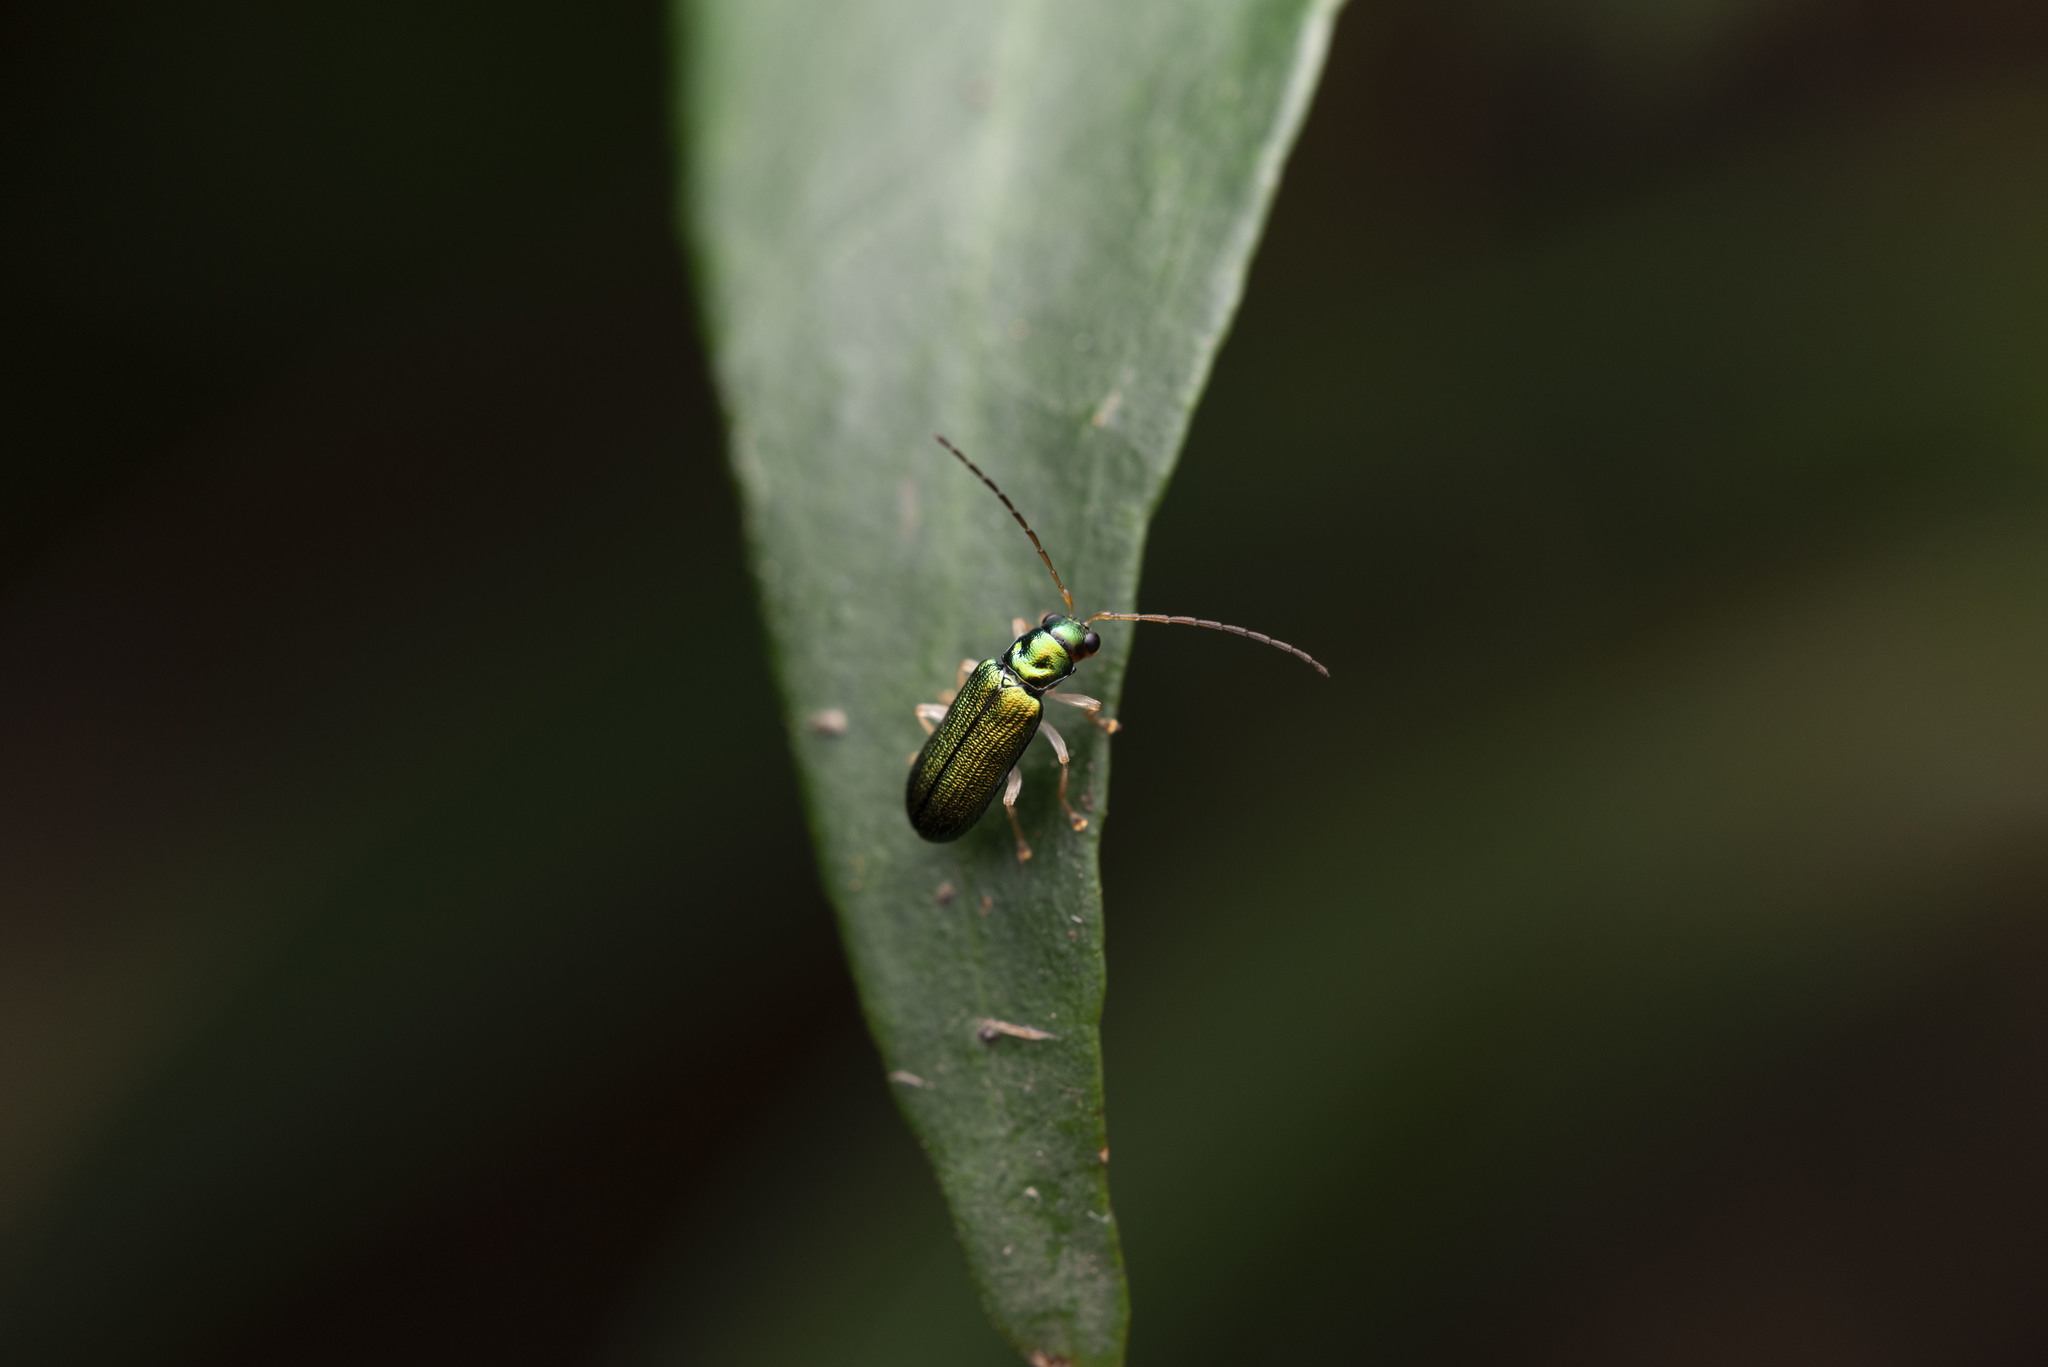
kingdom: Animalia
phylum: Arthropoda
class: Insecta
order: Coleoptera
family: Chrysomelidae
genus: Pseudotheopea
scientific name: Pseudotheopea smaragdina
